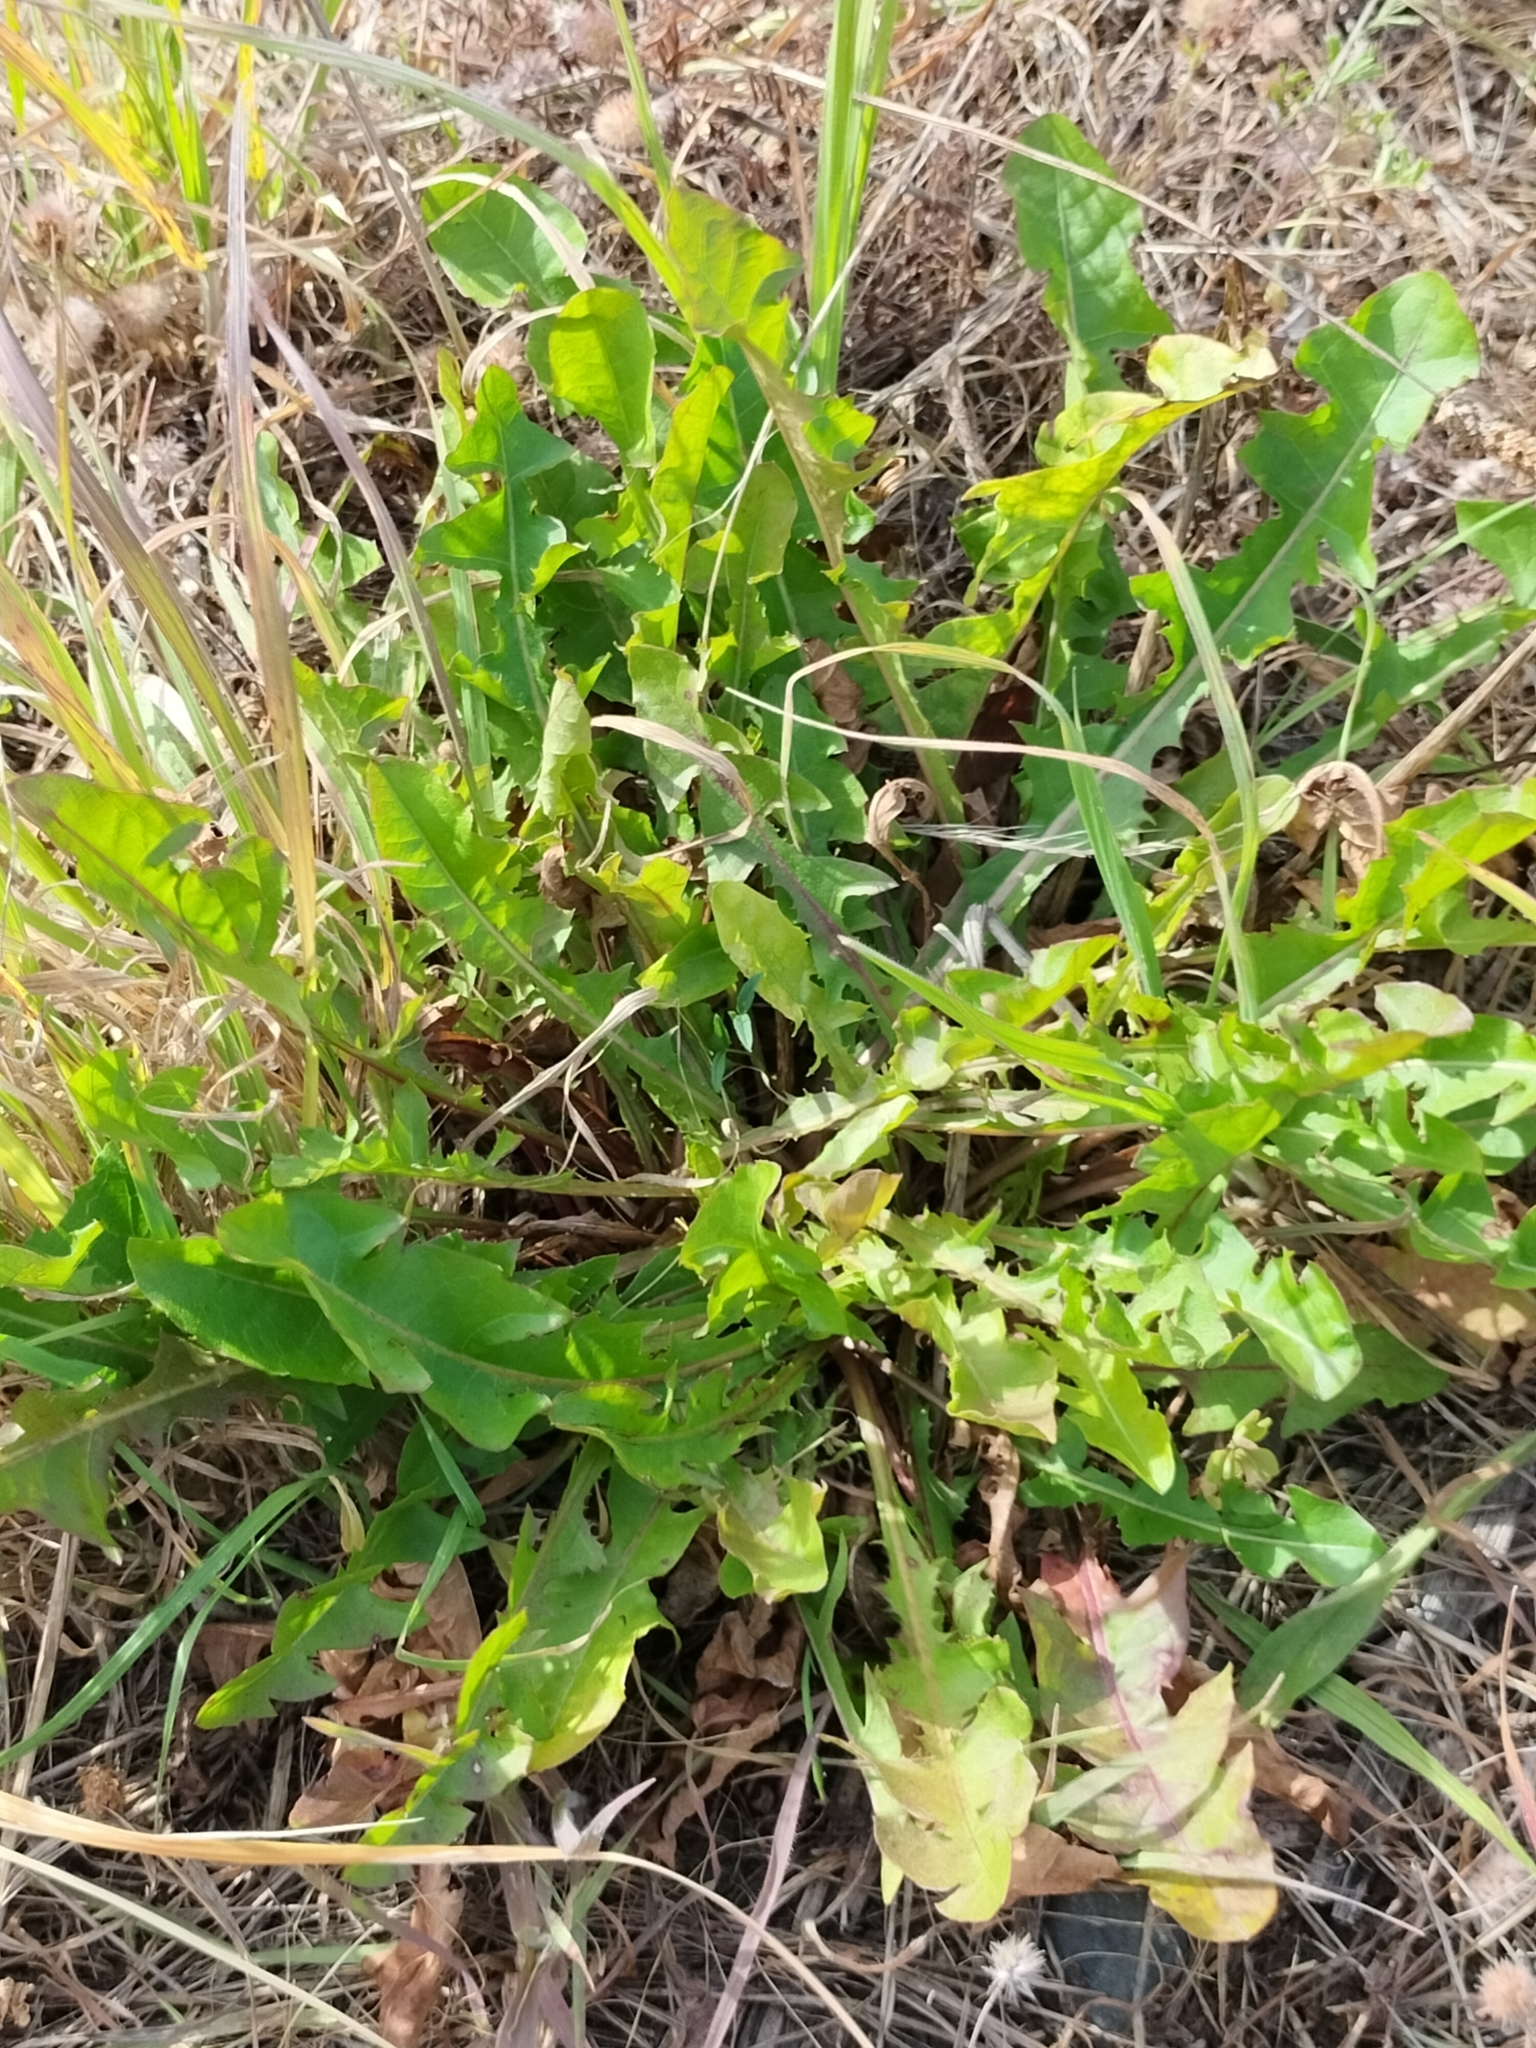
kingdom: Plantae
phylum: Tracheophyta
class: Magnoliopsida
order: Asterales
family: Asteraceae
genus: Taraxacum
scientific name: Taraxacum officinale
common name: Common dandelion
